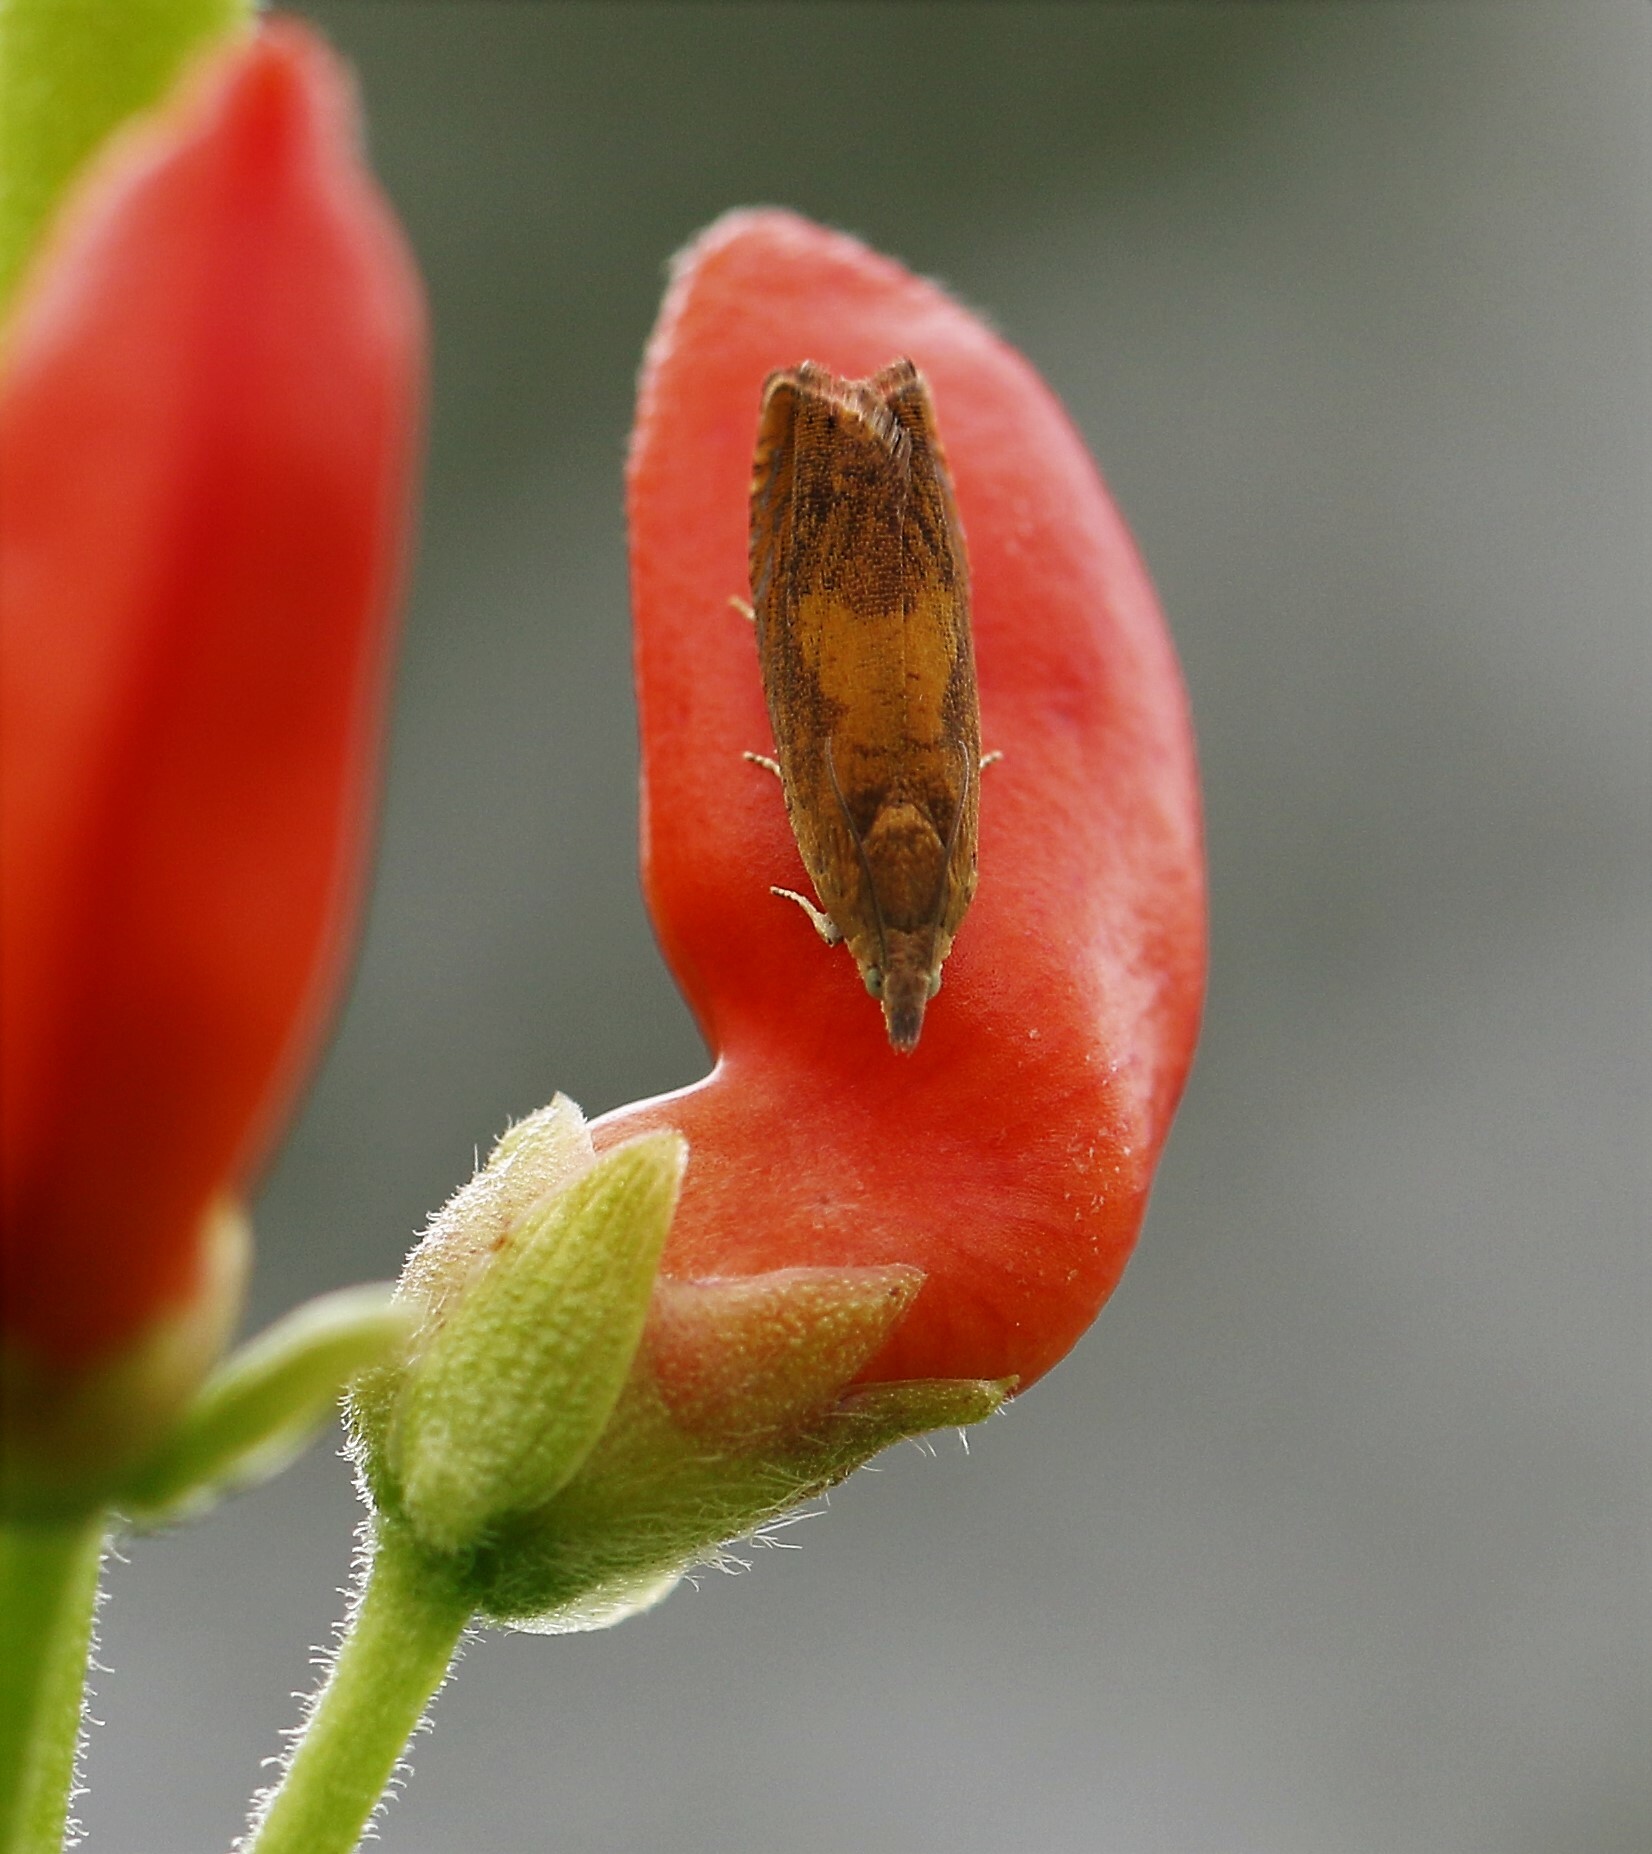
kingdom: Animalia
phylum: Arthropoda
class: Insecta
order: Lepidoptera
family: Tortricidae
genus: Dichrorampha
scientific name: Dichrorampha petiverella
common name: Common drill
